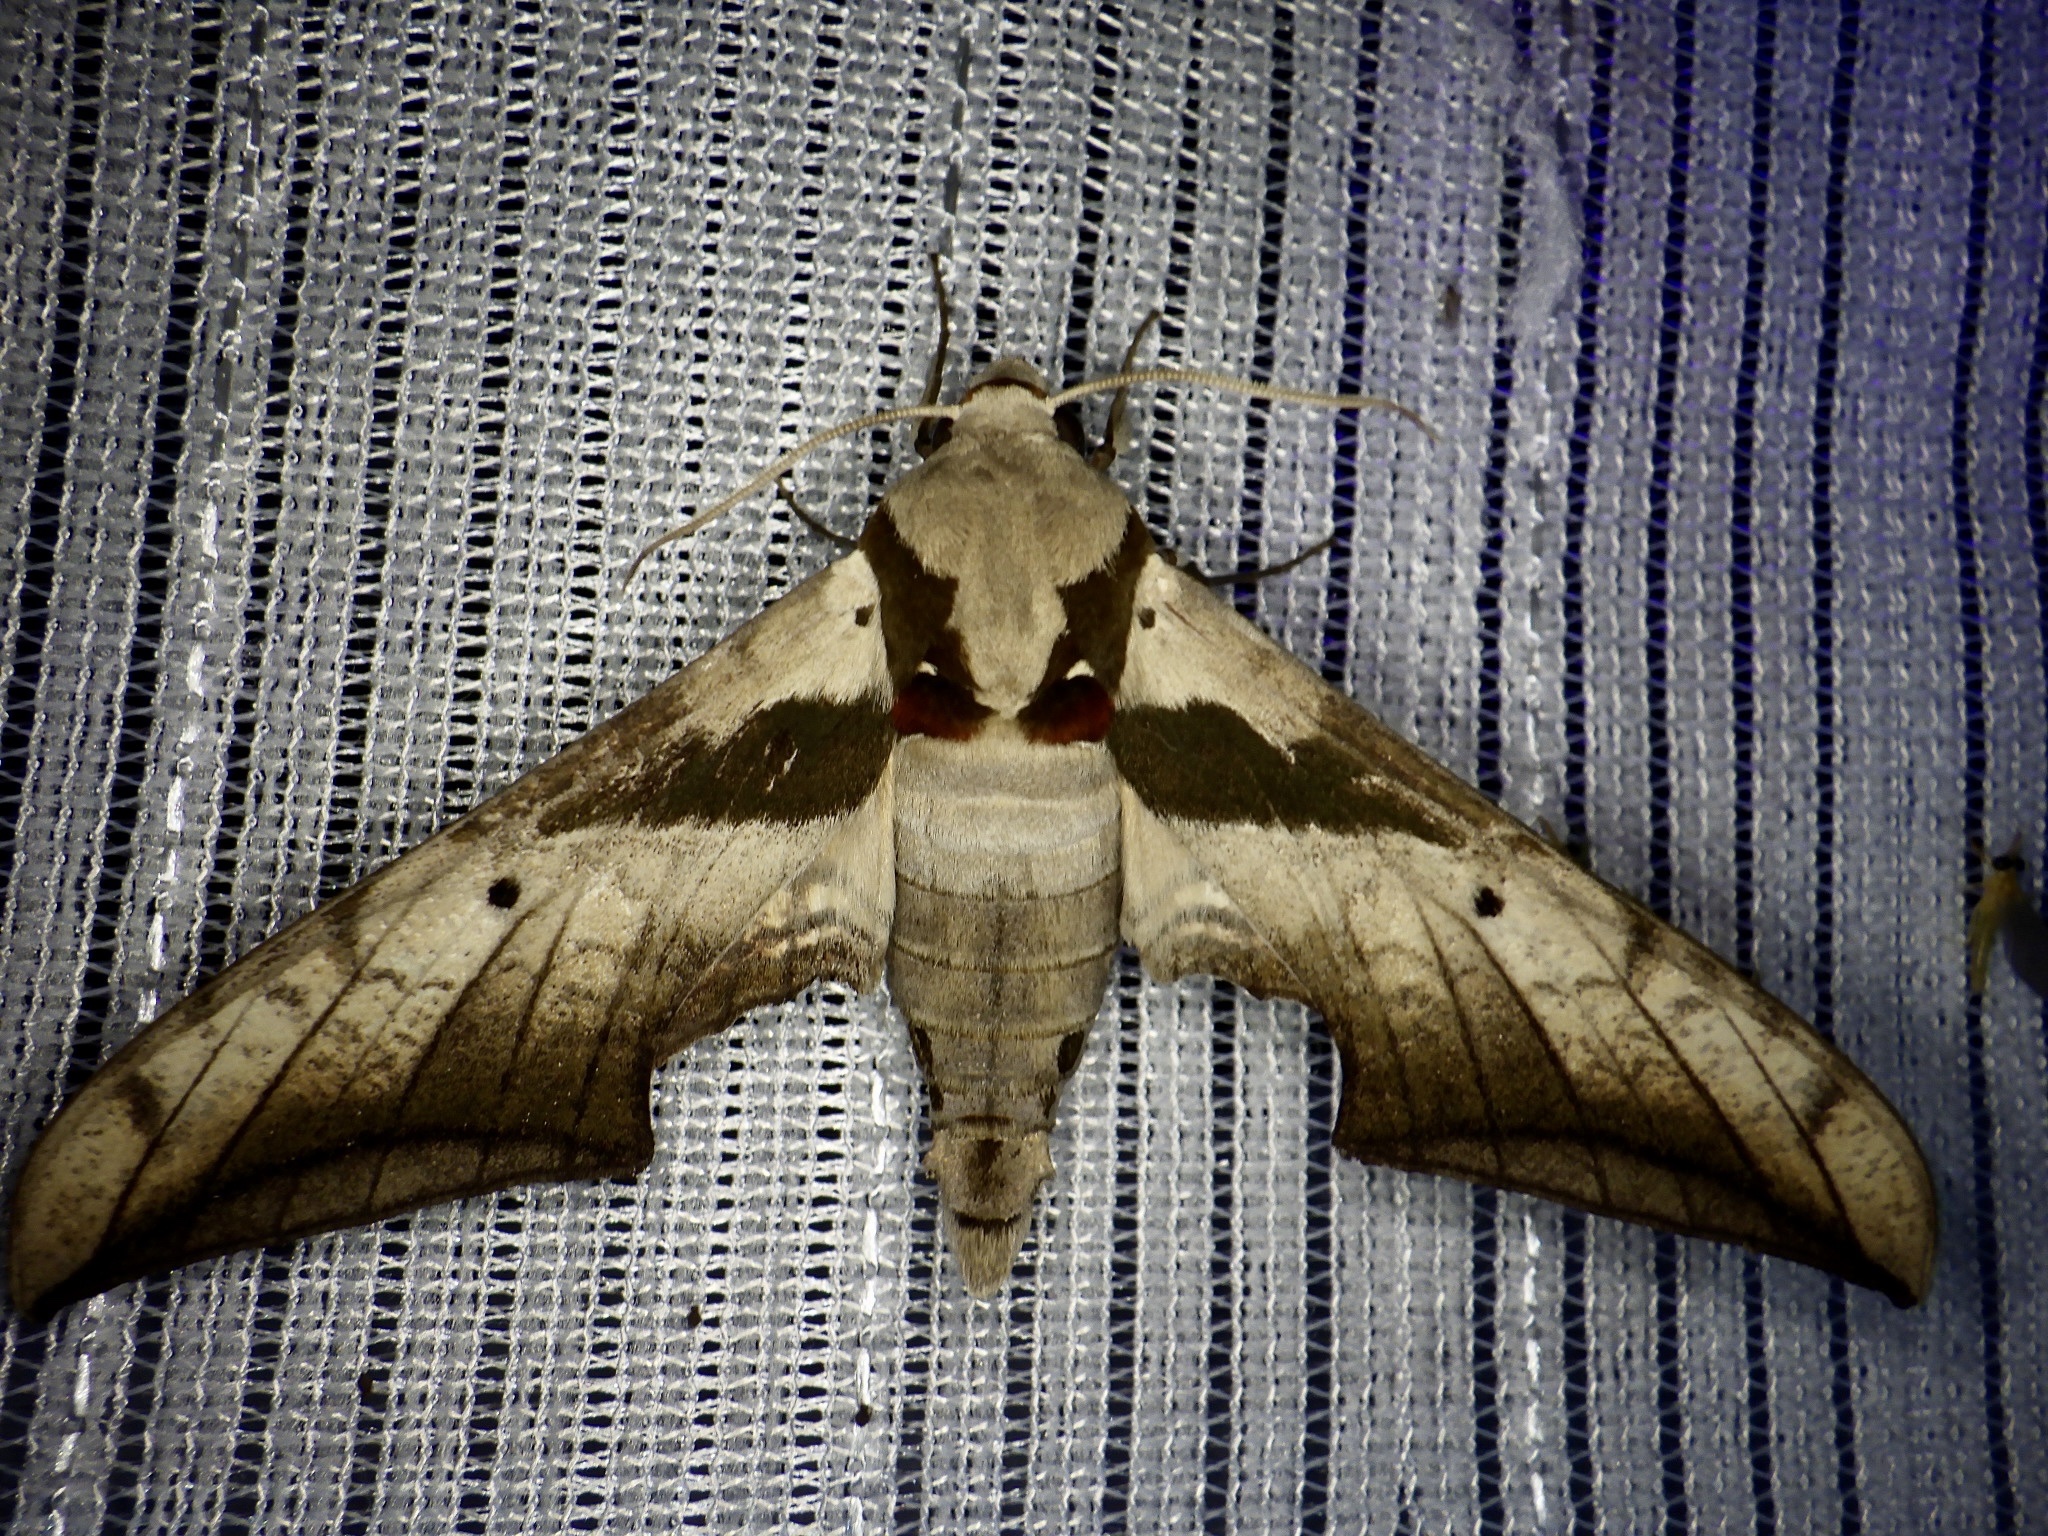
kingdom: Animalia
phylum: Arthropoda
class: Insecta
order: Lepidoptera
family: Sphingidae
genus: Ambulyx
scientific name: Ambulyx japonica
